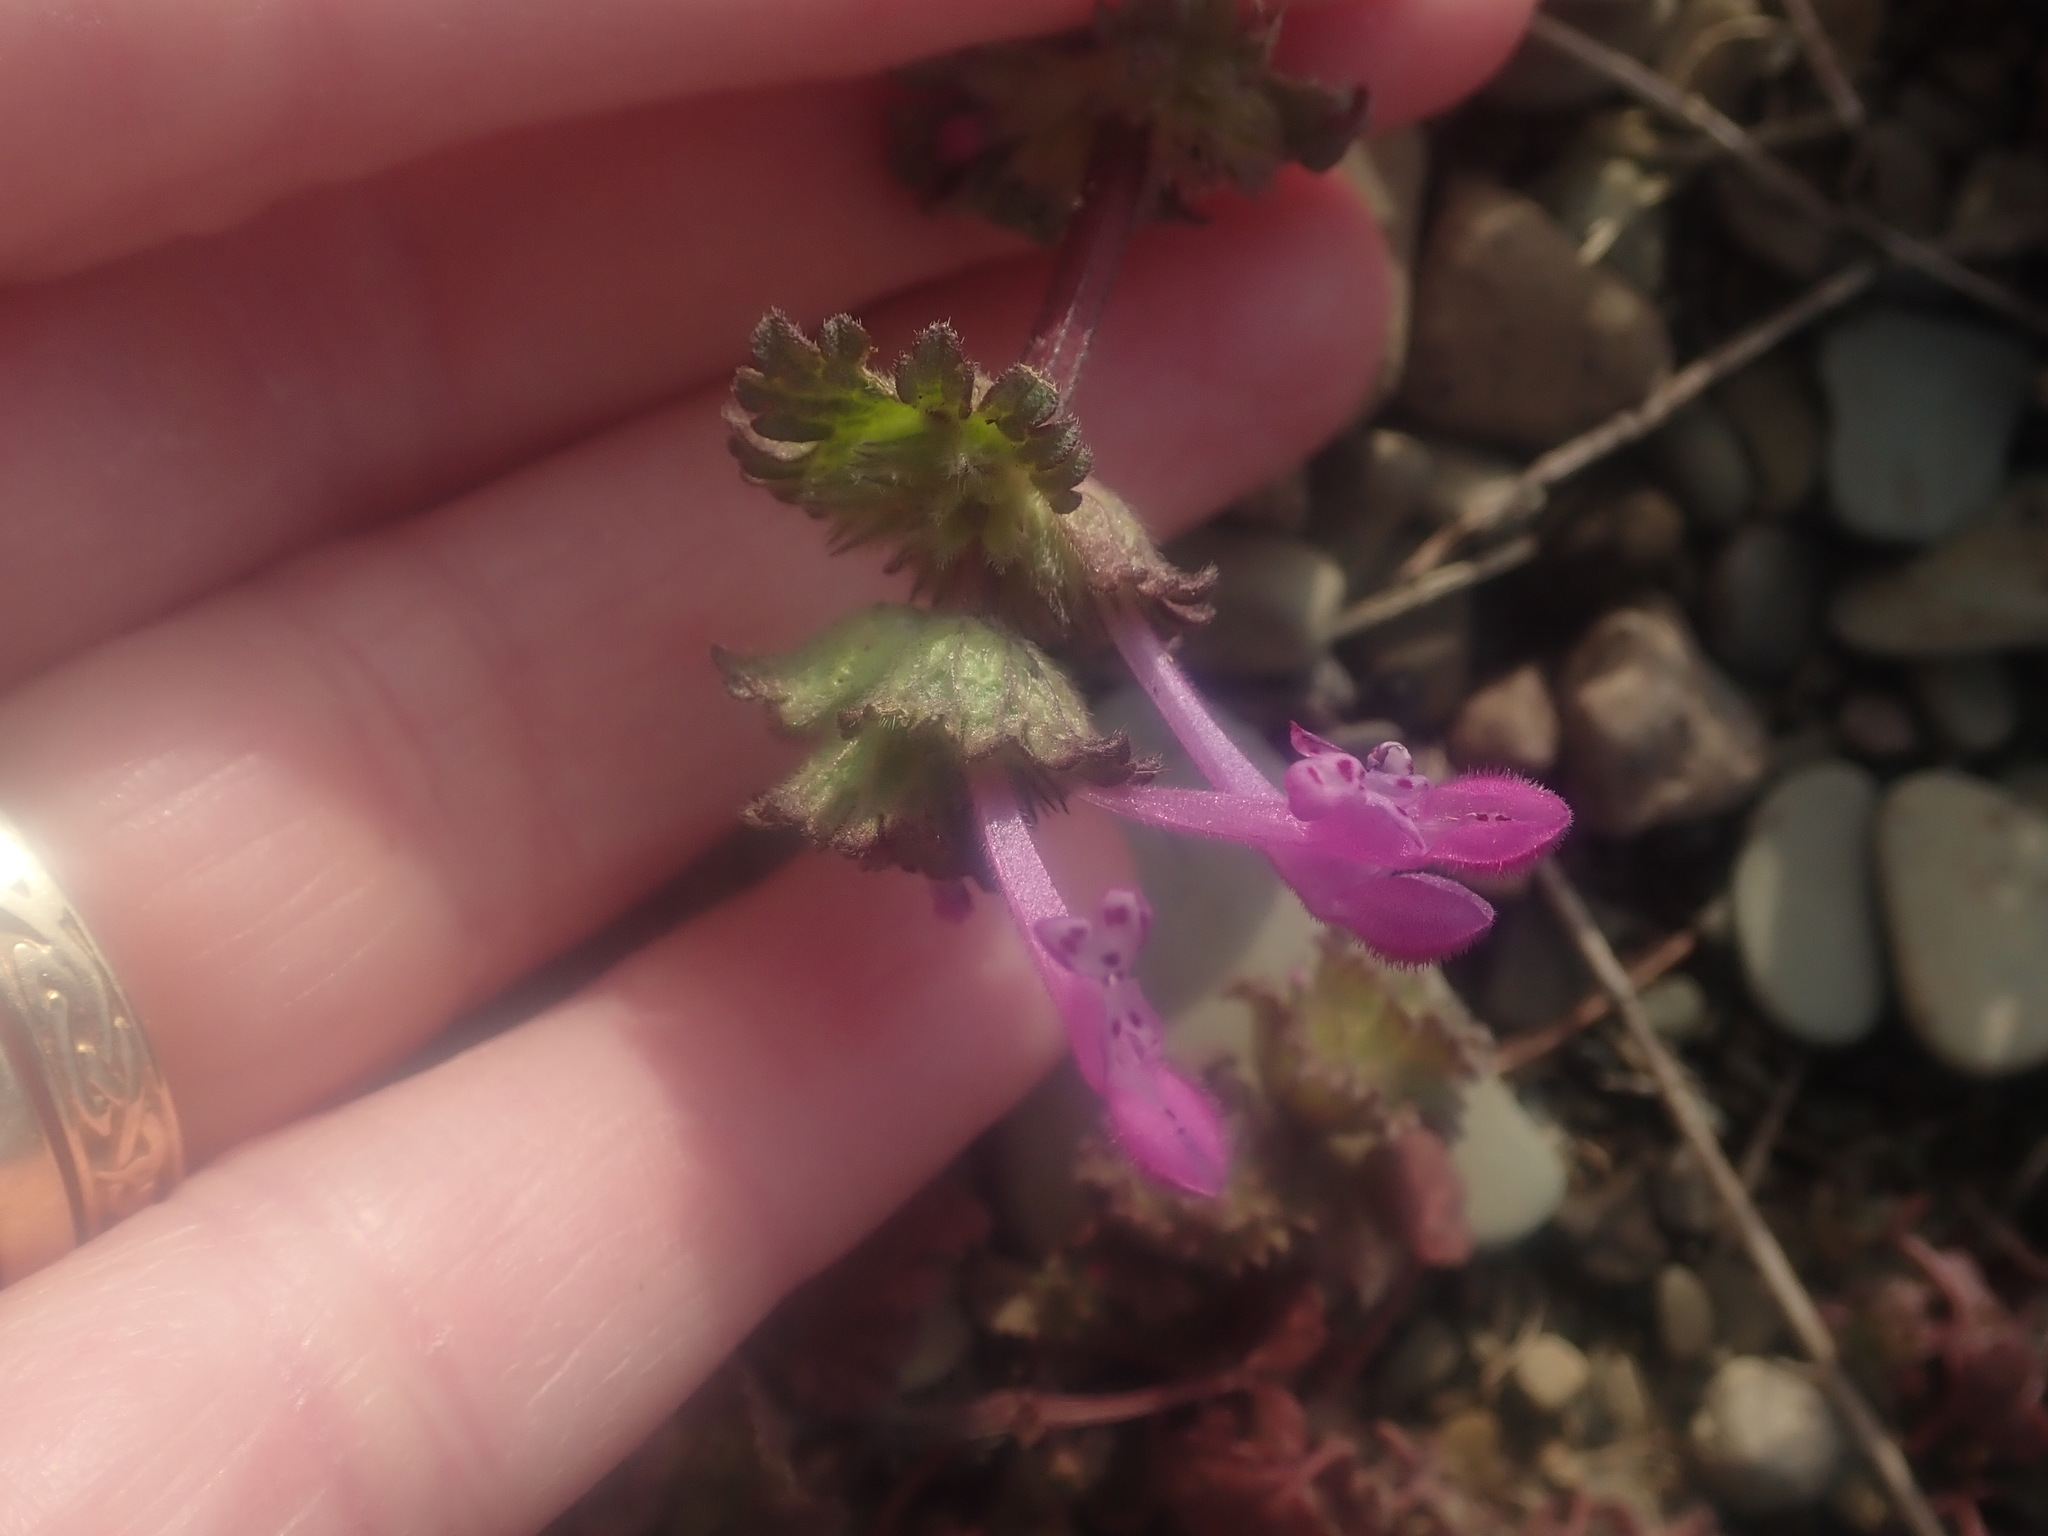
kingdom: Plantae
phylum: Tracheophyta
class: Magnoliopsida
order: Lamiales
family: Lamiaceae
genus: Lamium
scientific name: Lamium amplexicaule
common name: Henbit dead-nettle
